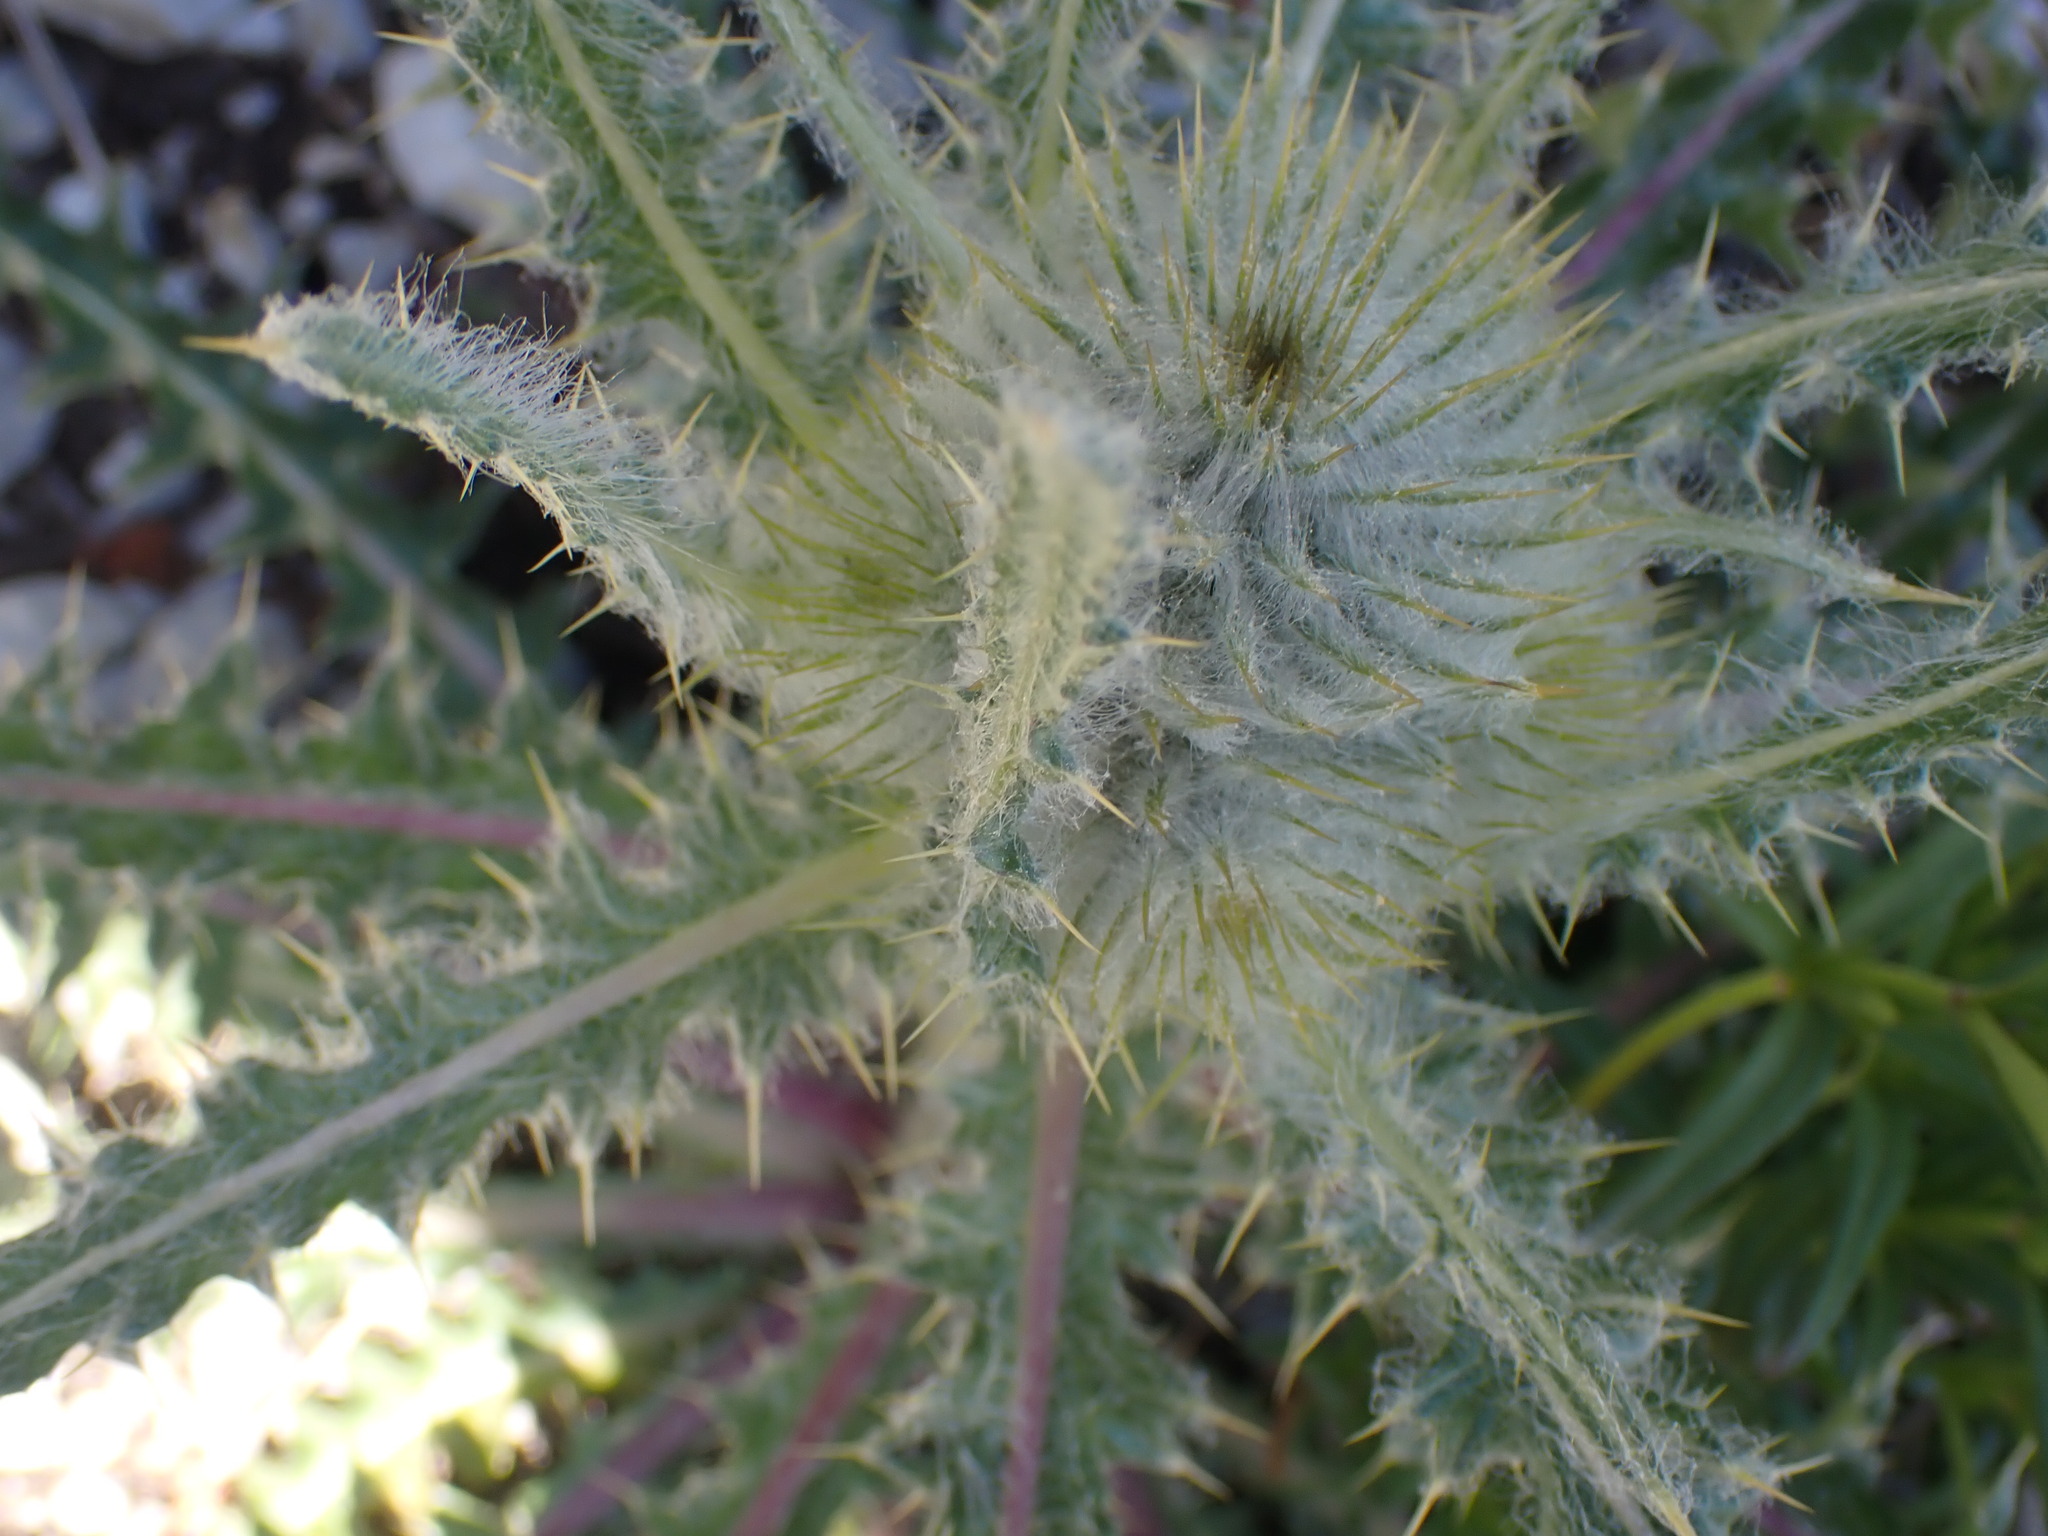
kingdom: Plantae
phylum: Tracheophyta
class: Magnoliopsida
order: Asterales
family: Asteraceae
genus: Cirsium
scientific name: Cirsium hookerianum
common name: Hooker's thistle
